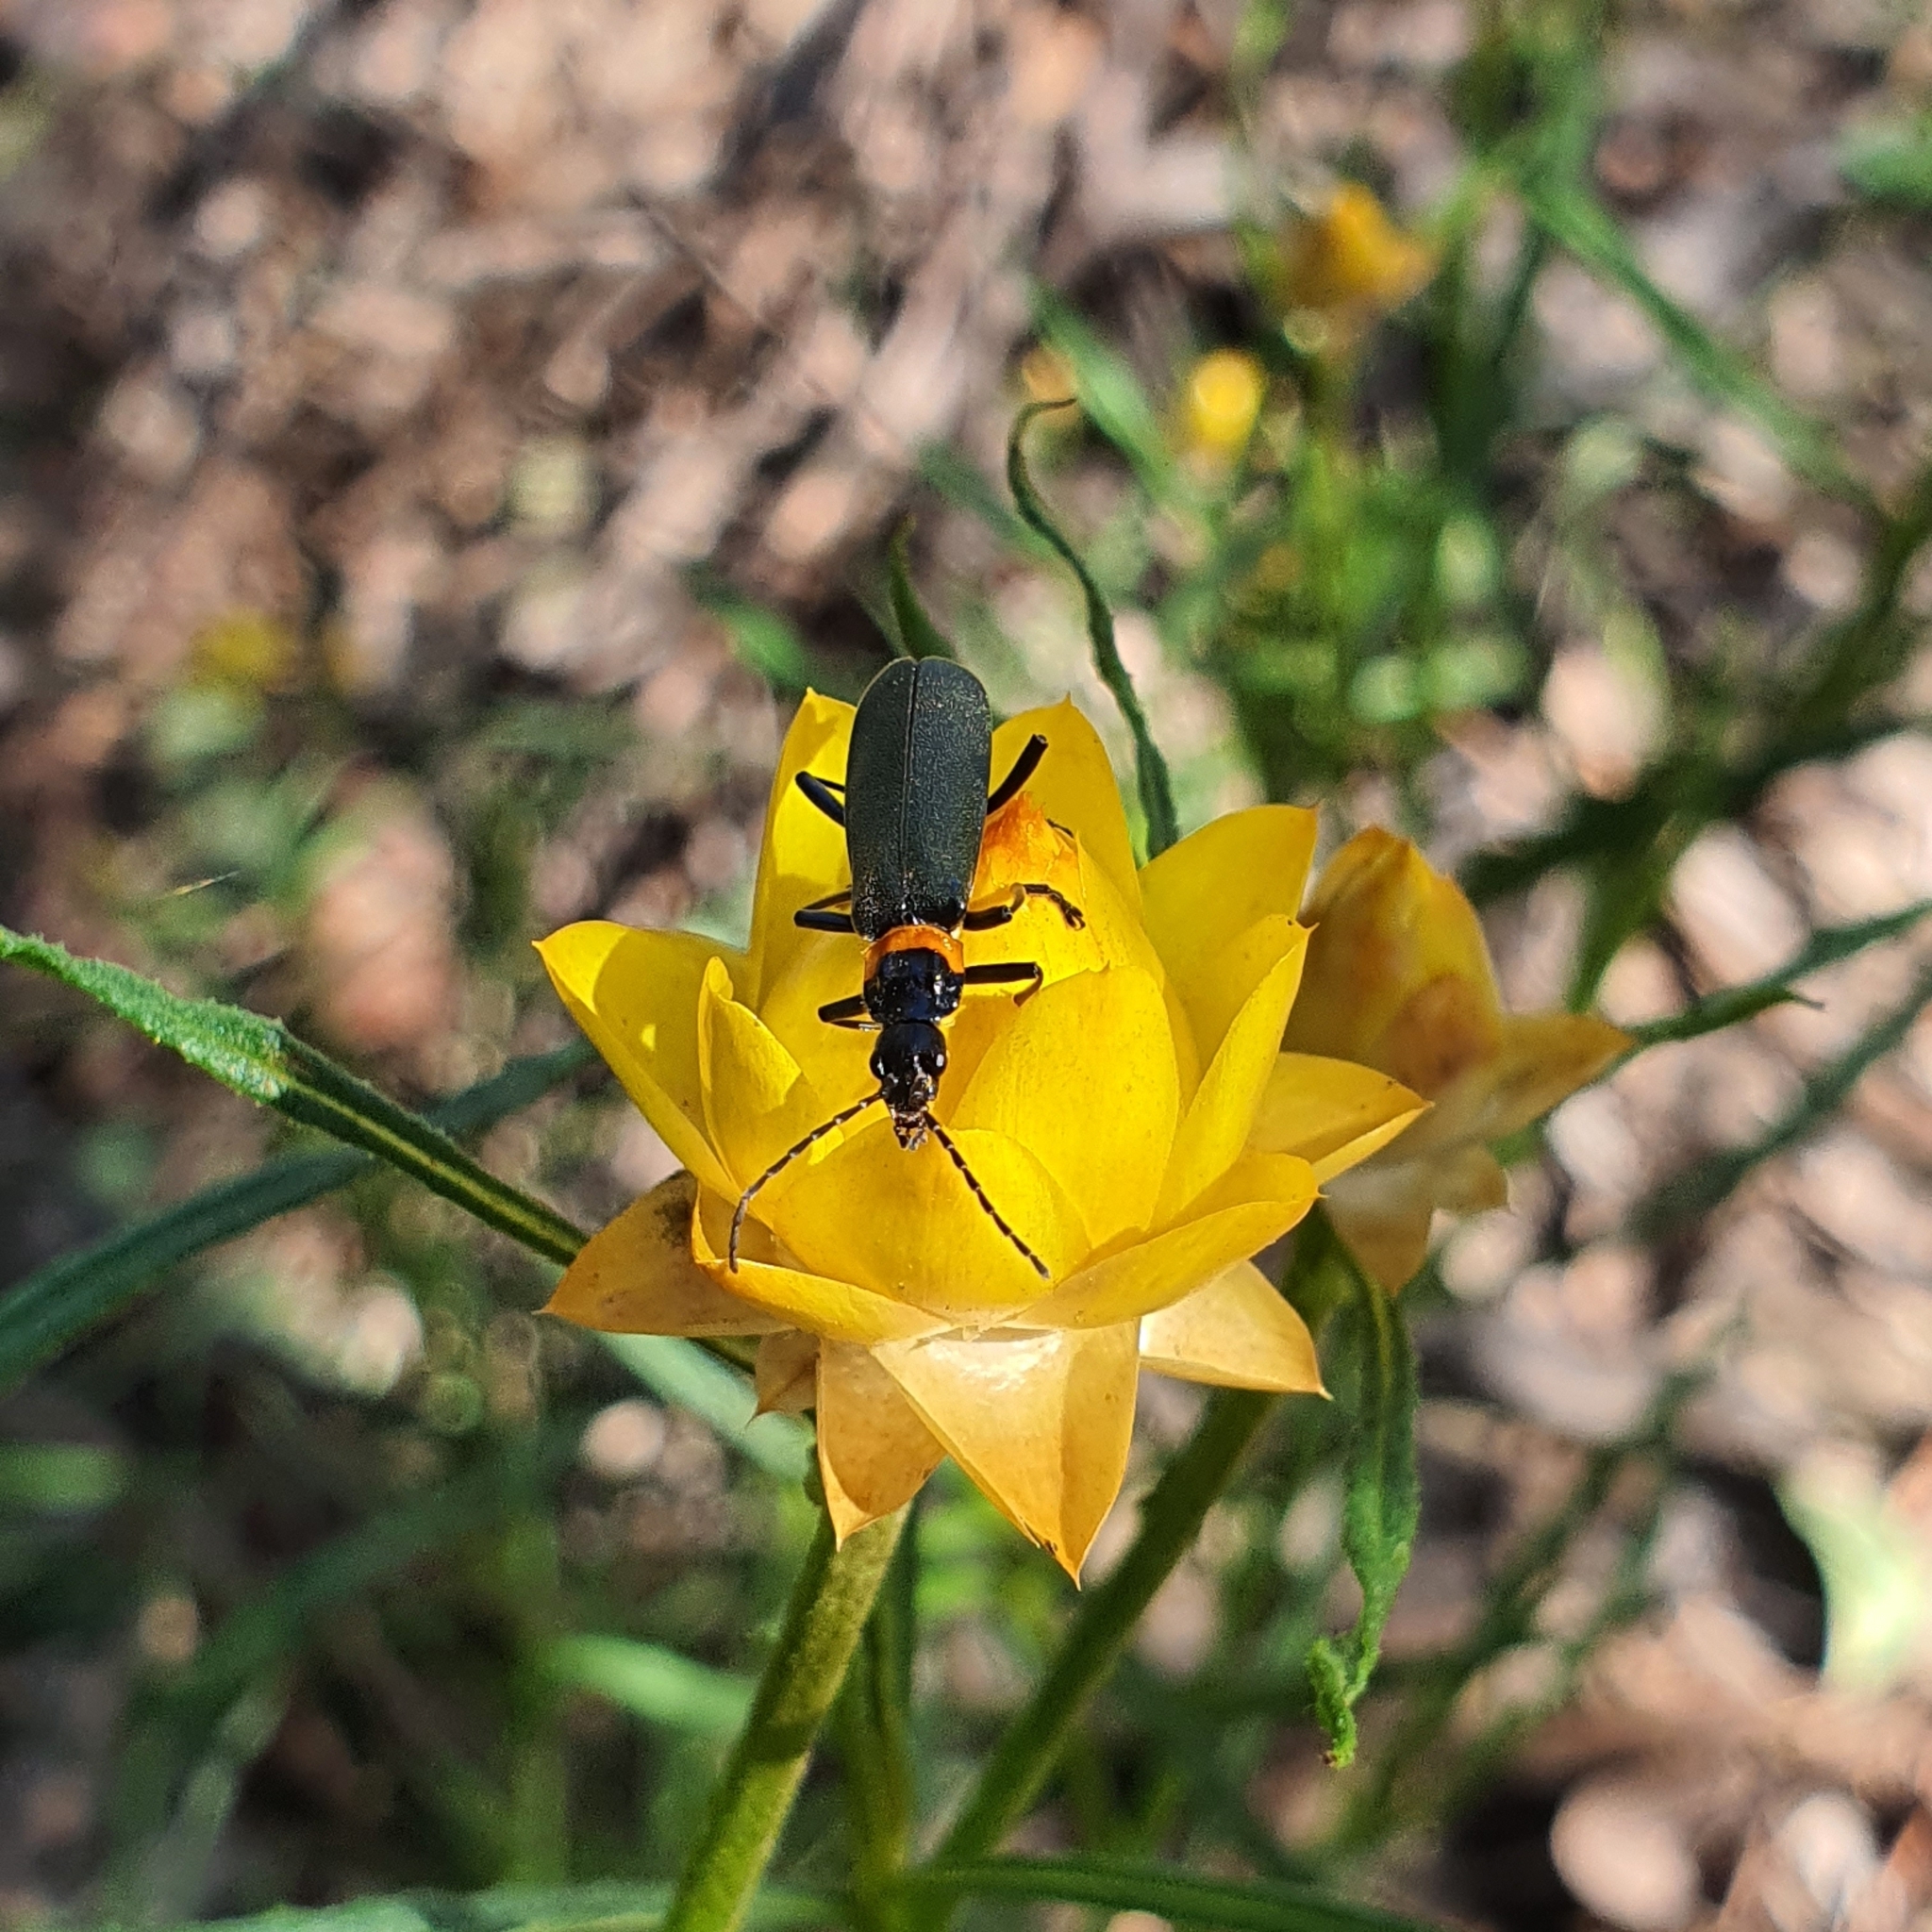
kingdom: Animalia
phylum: Arthropoda
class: Insecta
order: Coleoptera
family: Cantharidae
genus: Chauliognathus
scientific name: Chauliognathus
